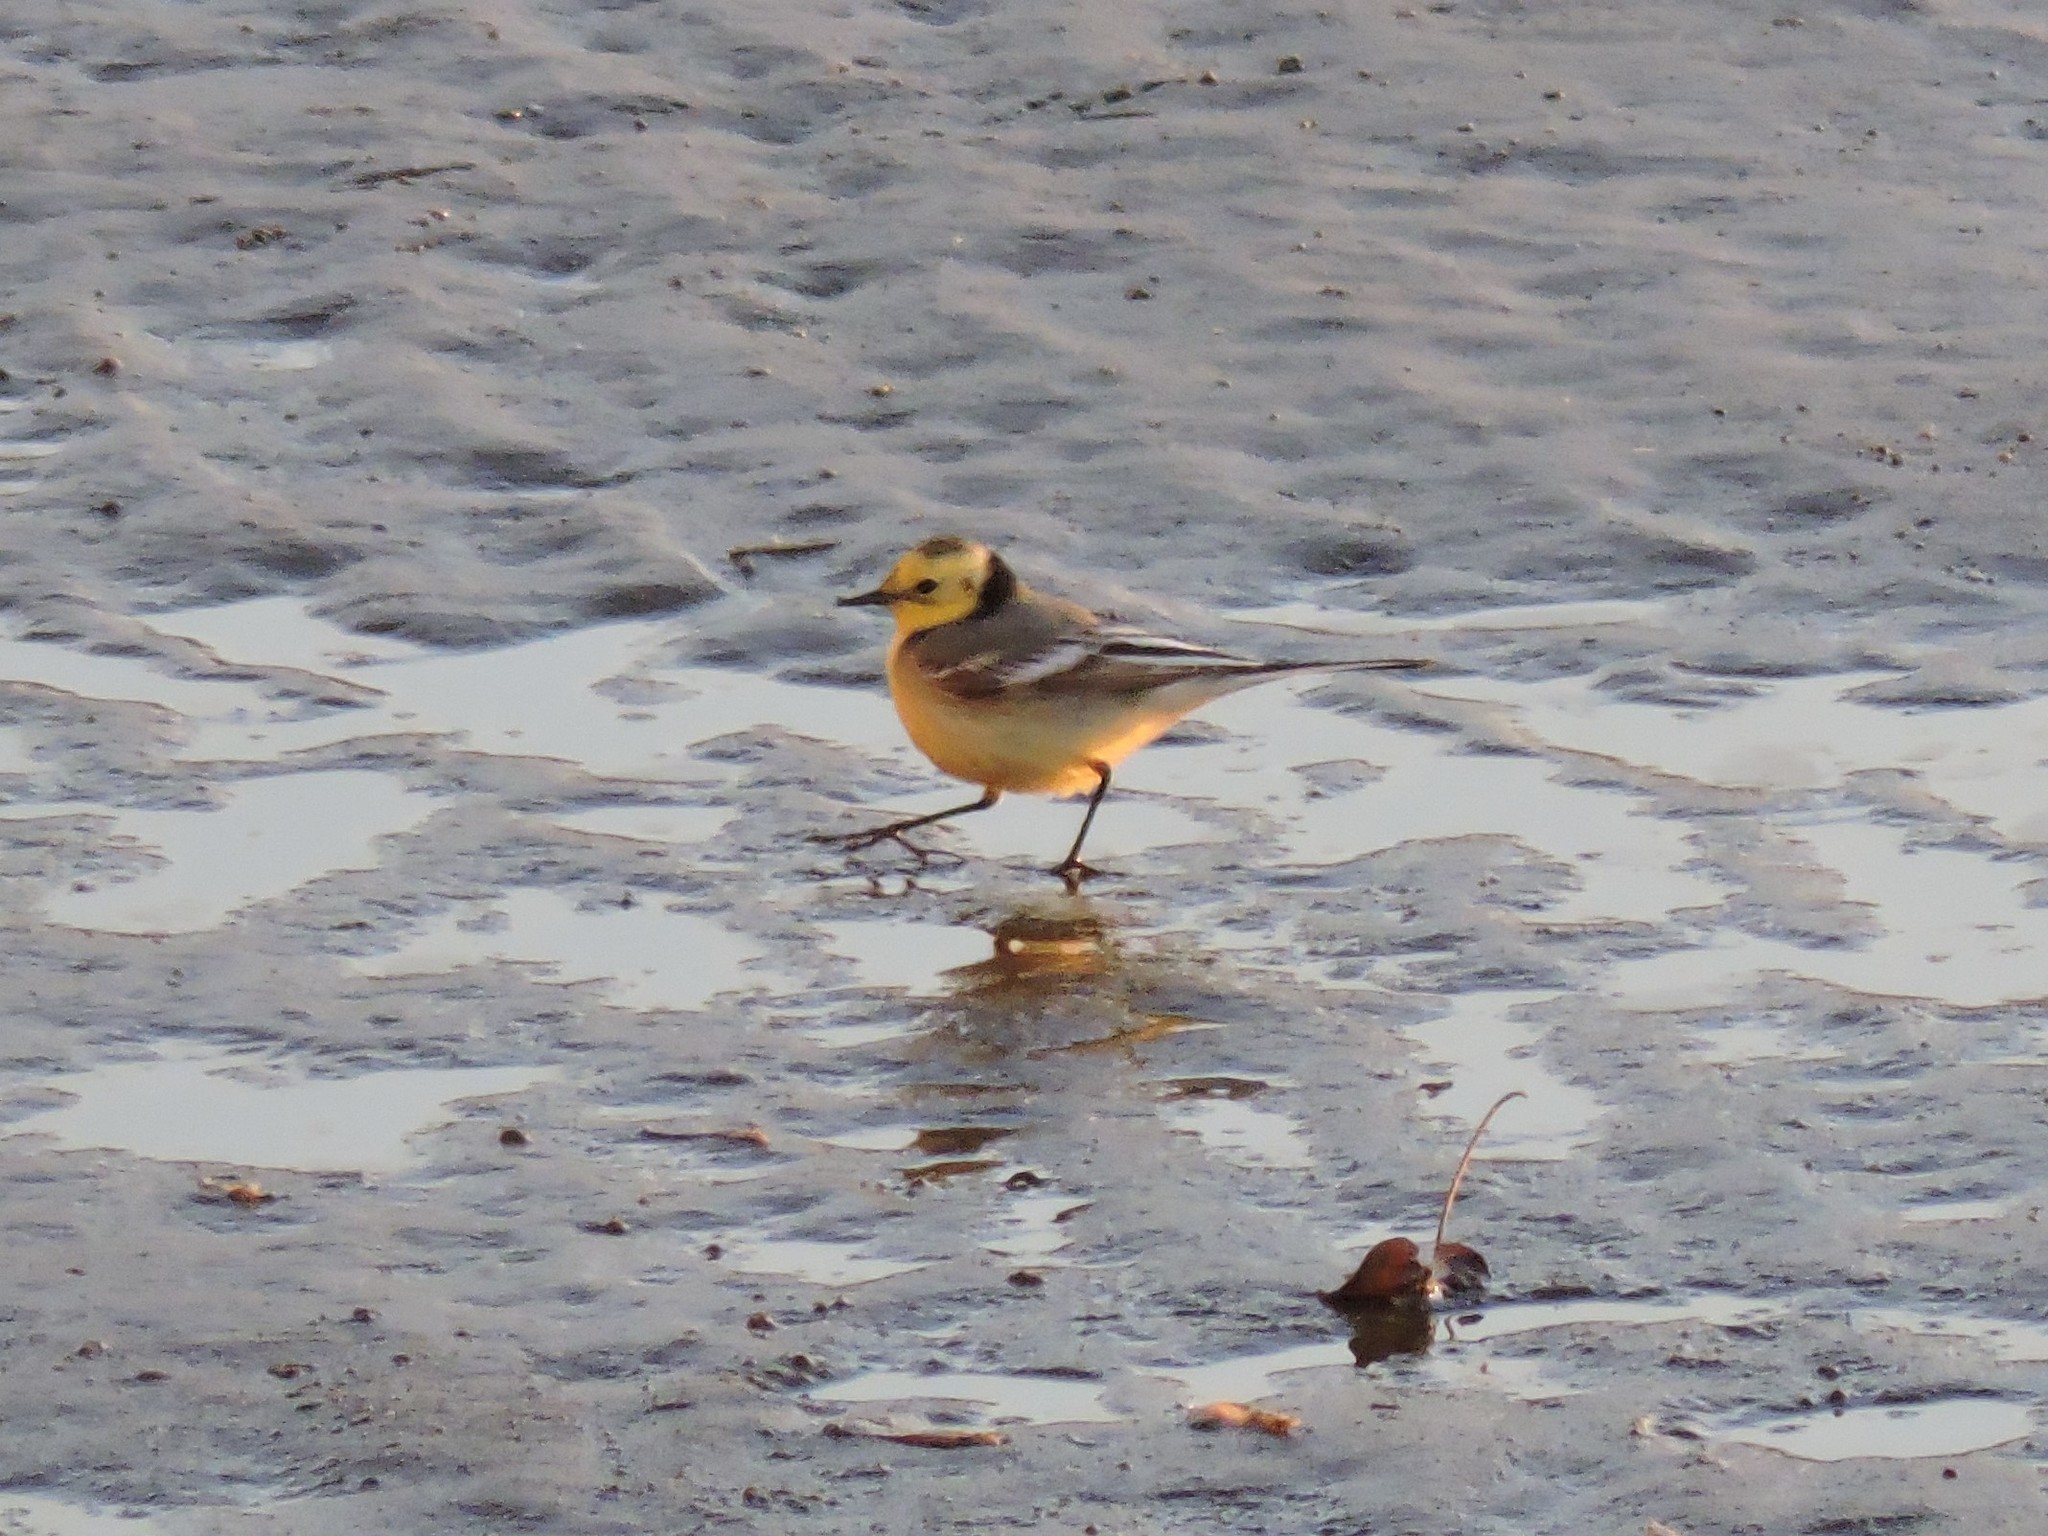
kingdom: Animalia
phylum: Chordata
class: Aves
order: Passeriformes
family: Motacillidae
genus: Motacilla
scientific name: Motacilla citreola
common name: Citrine wagtail
